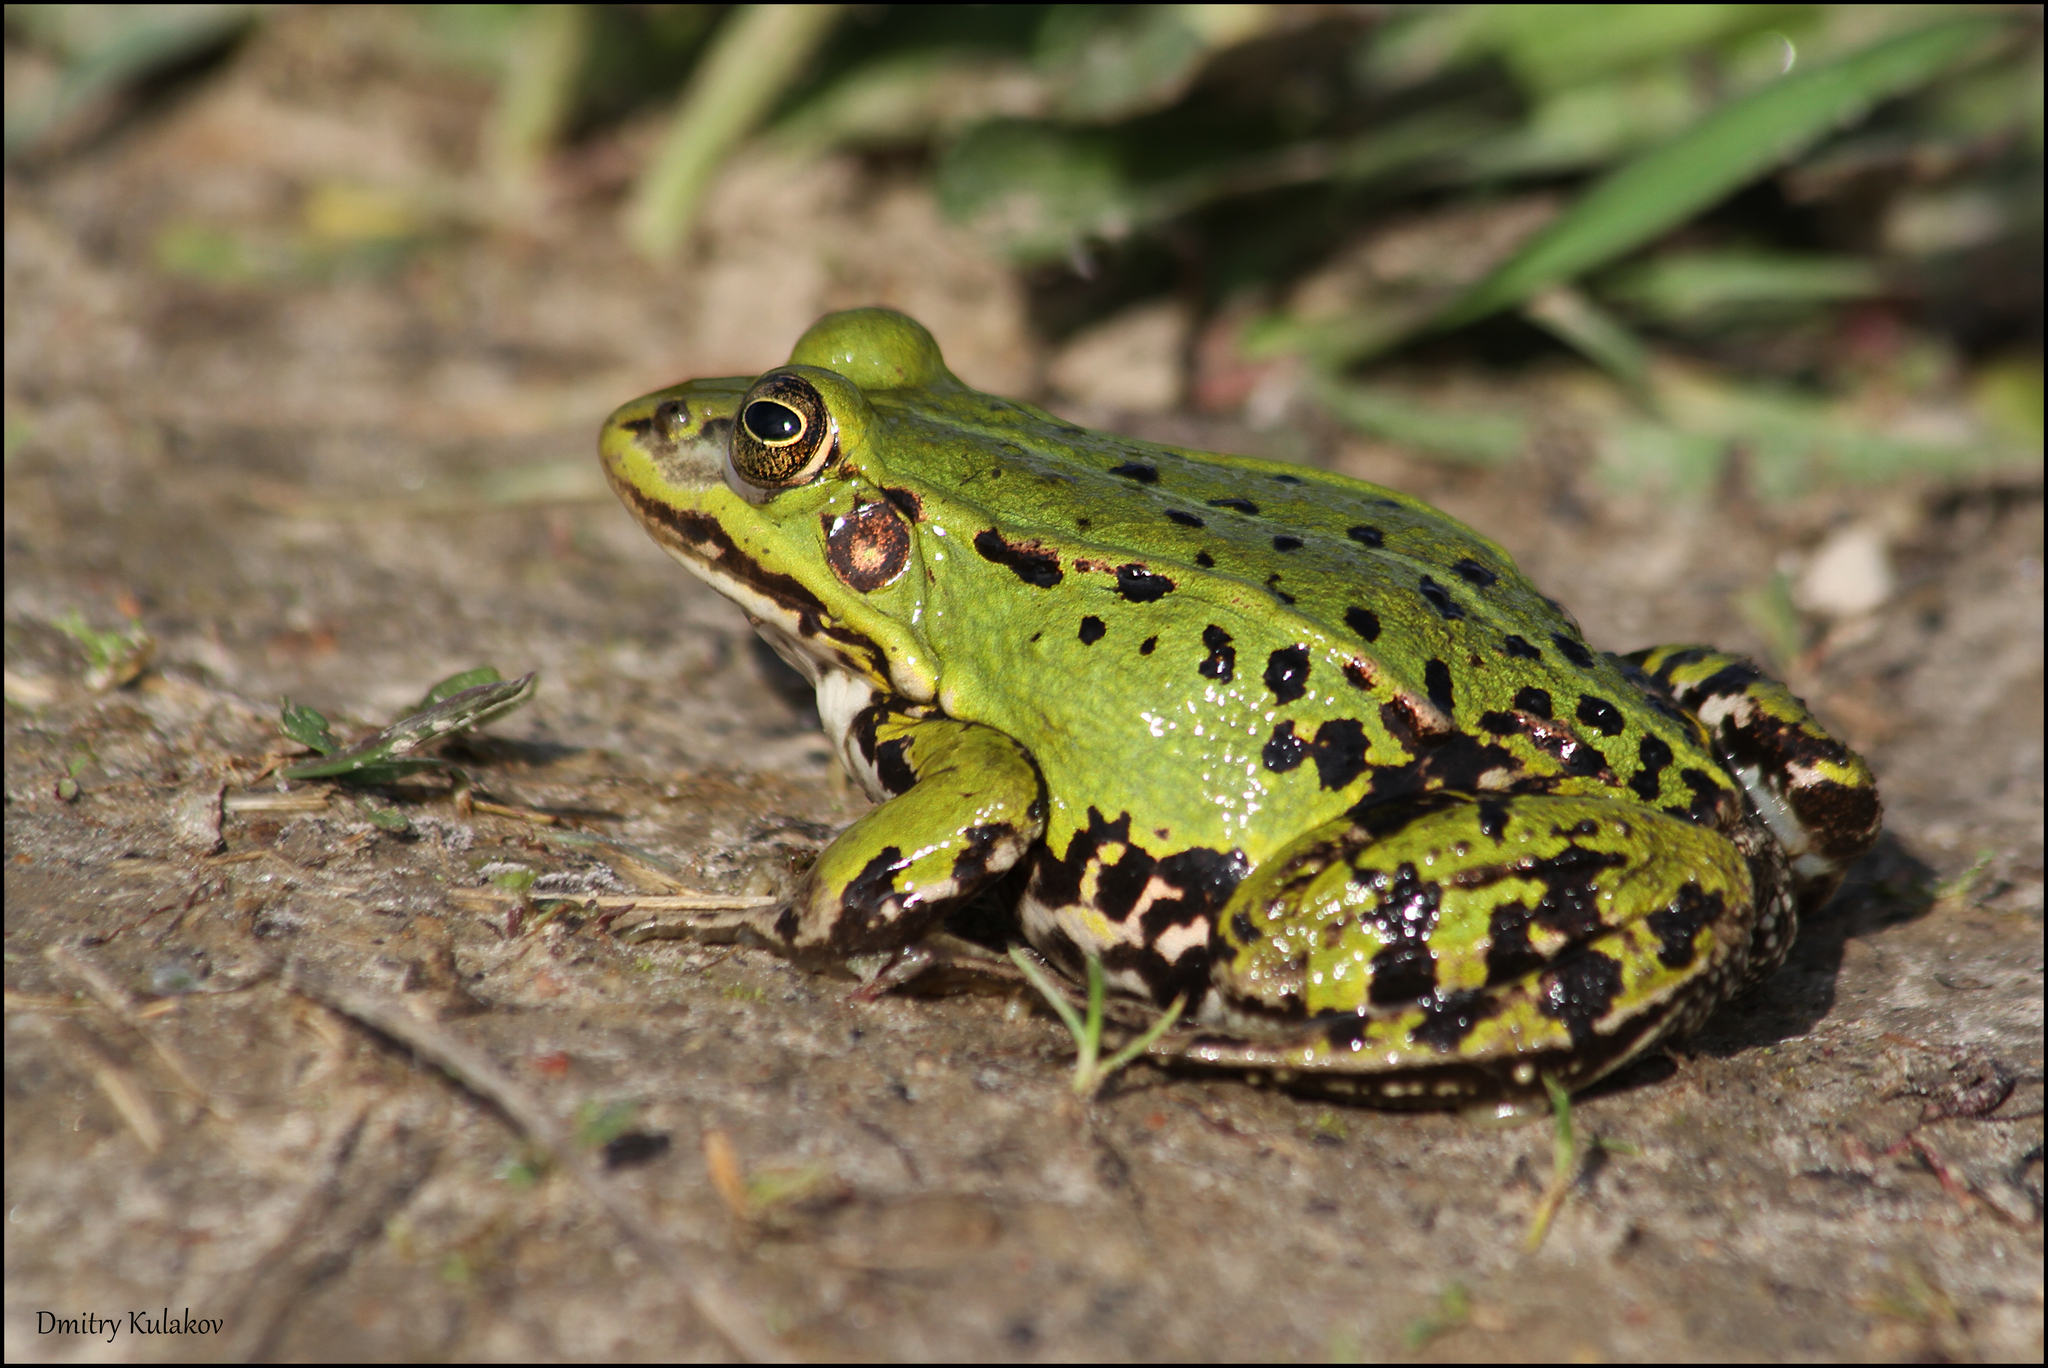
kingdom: Animalia
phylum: Chordata
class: Amphibia
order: Anura
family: Ranidae
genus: Pelophylax
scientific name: Pelophylax lessonae
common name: Pool frog
